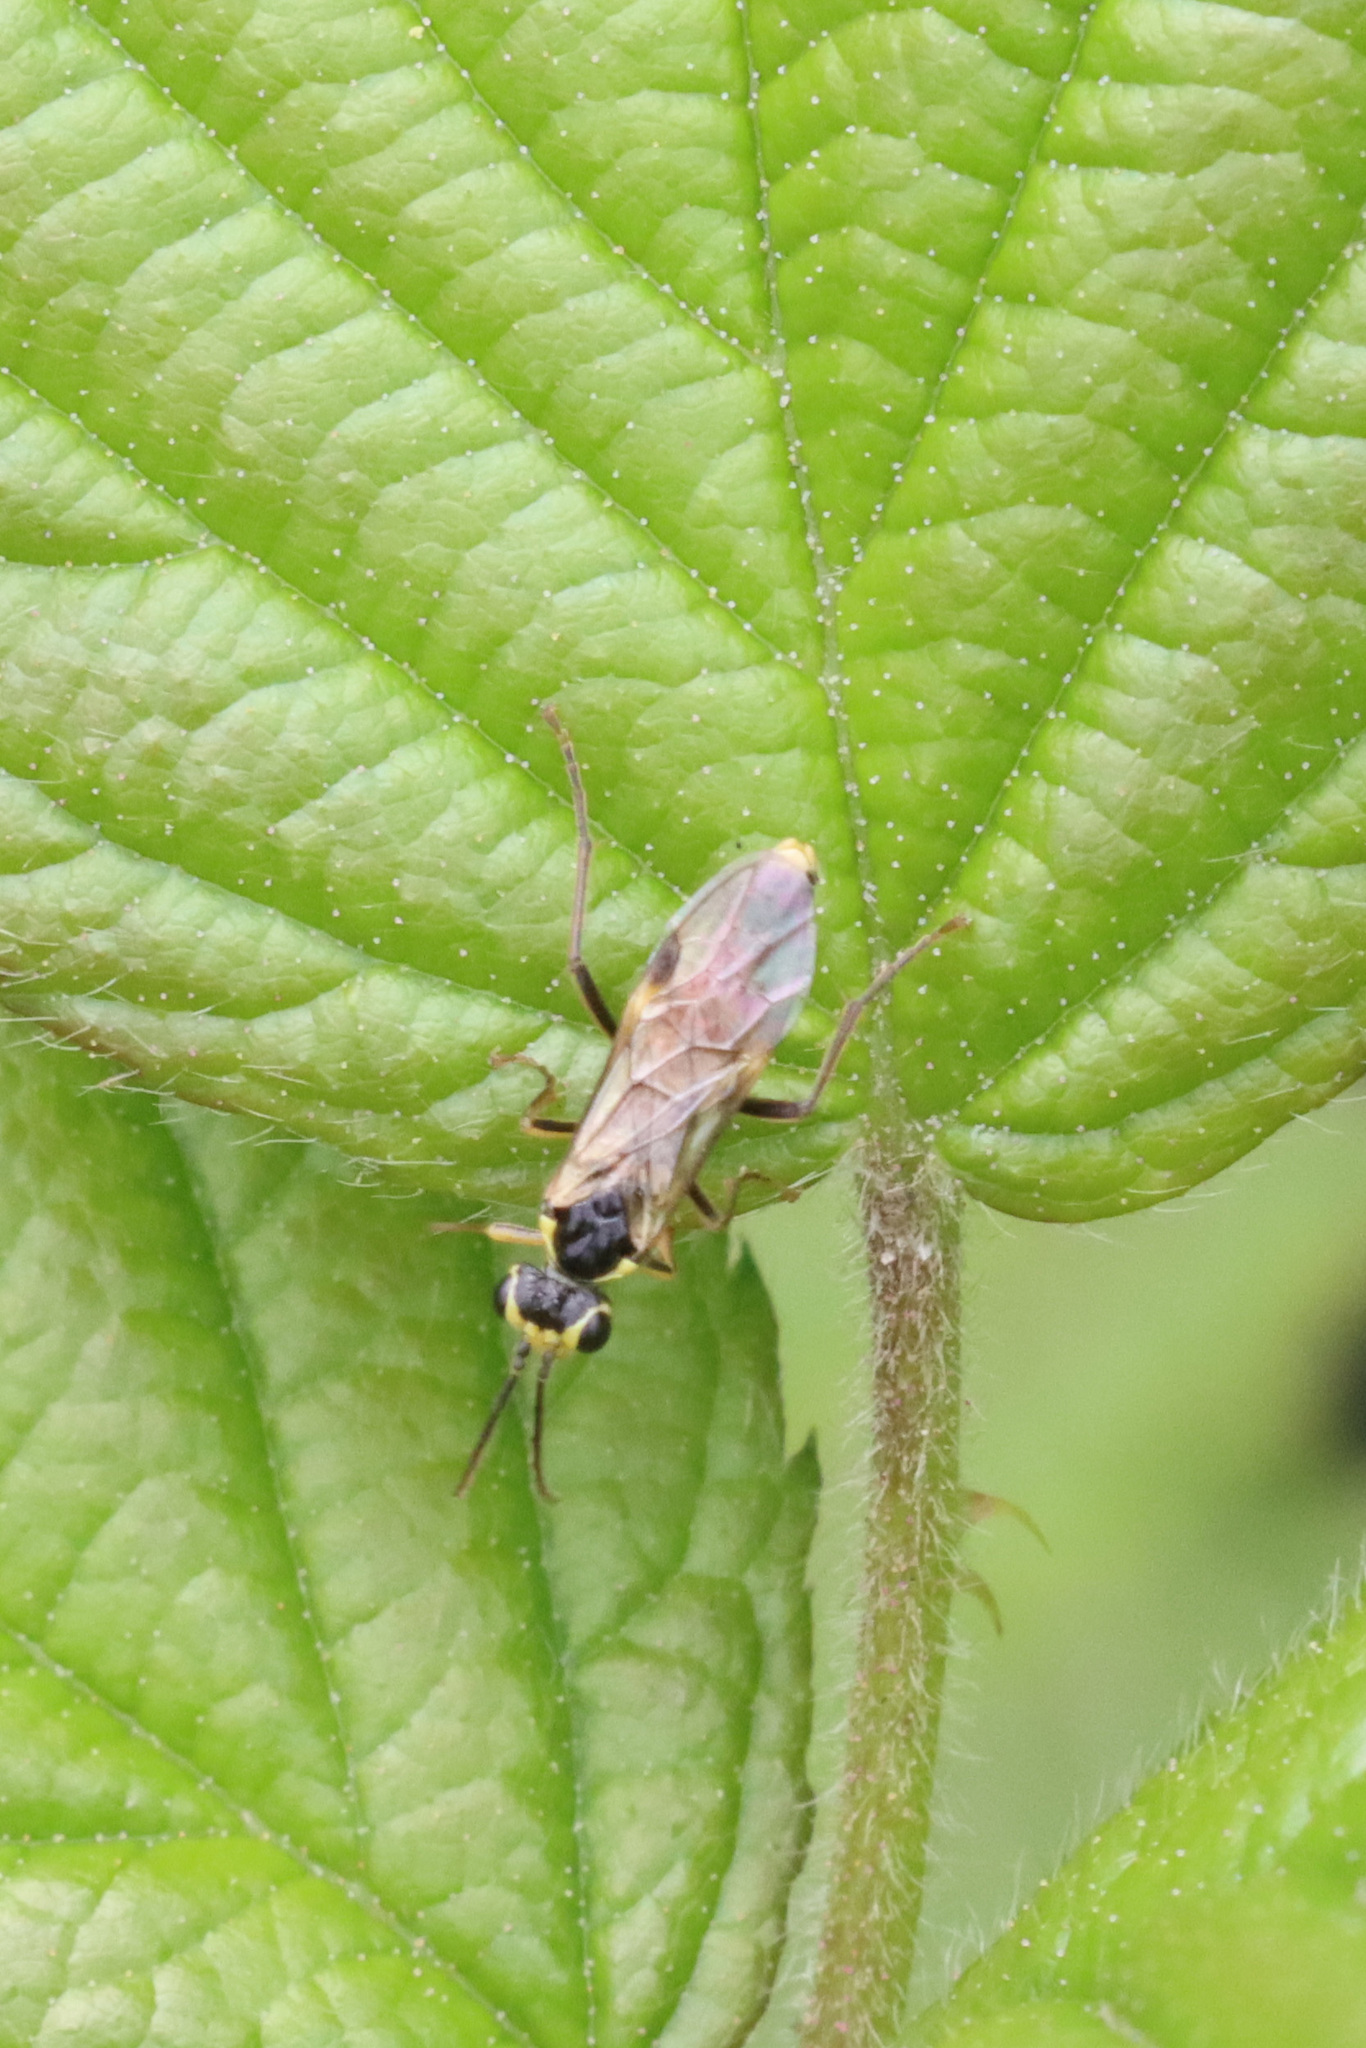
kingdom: Animalia
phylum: Arthropoda
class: Insecta
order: Hymenoptera
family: Tenthredinidae
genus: Aglaostigma
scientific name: Aglaostigma fulvipes
